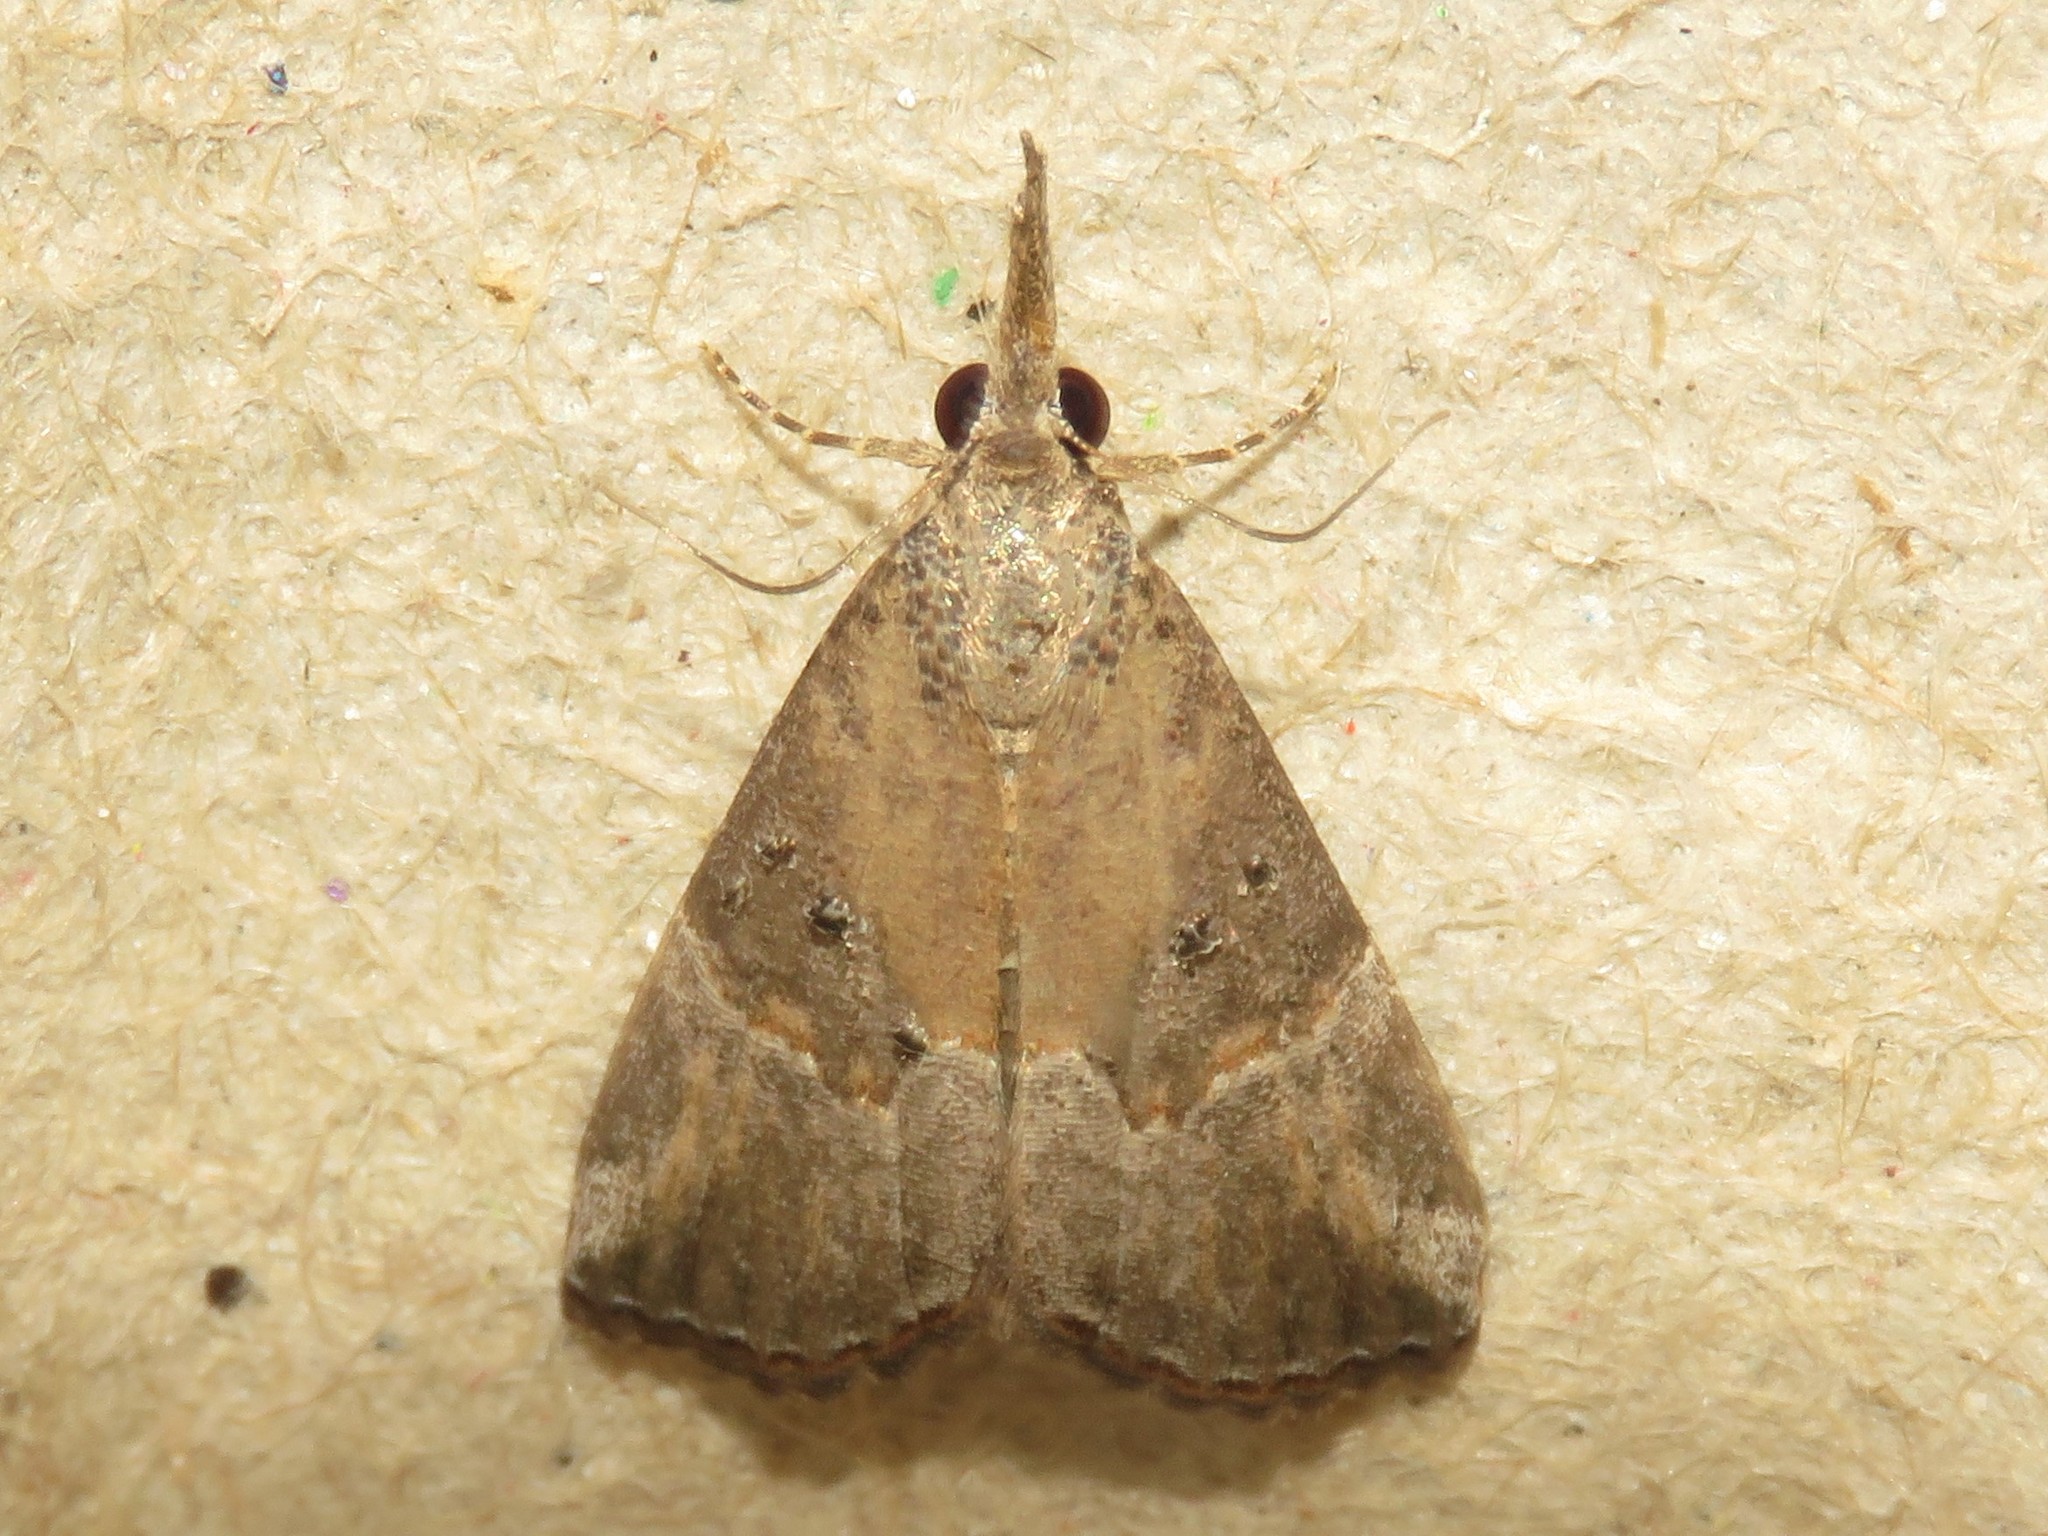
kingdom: Animalia
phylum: Arthropoda
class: Insecta
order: Lepidoptera
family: Erebidae
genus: Hypena
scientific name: Hypena minualis
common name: Sooty snout
